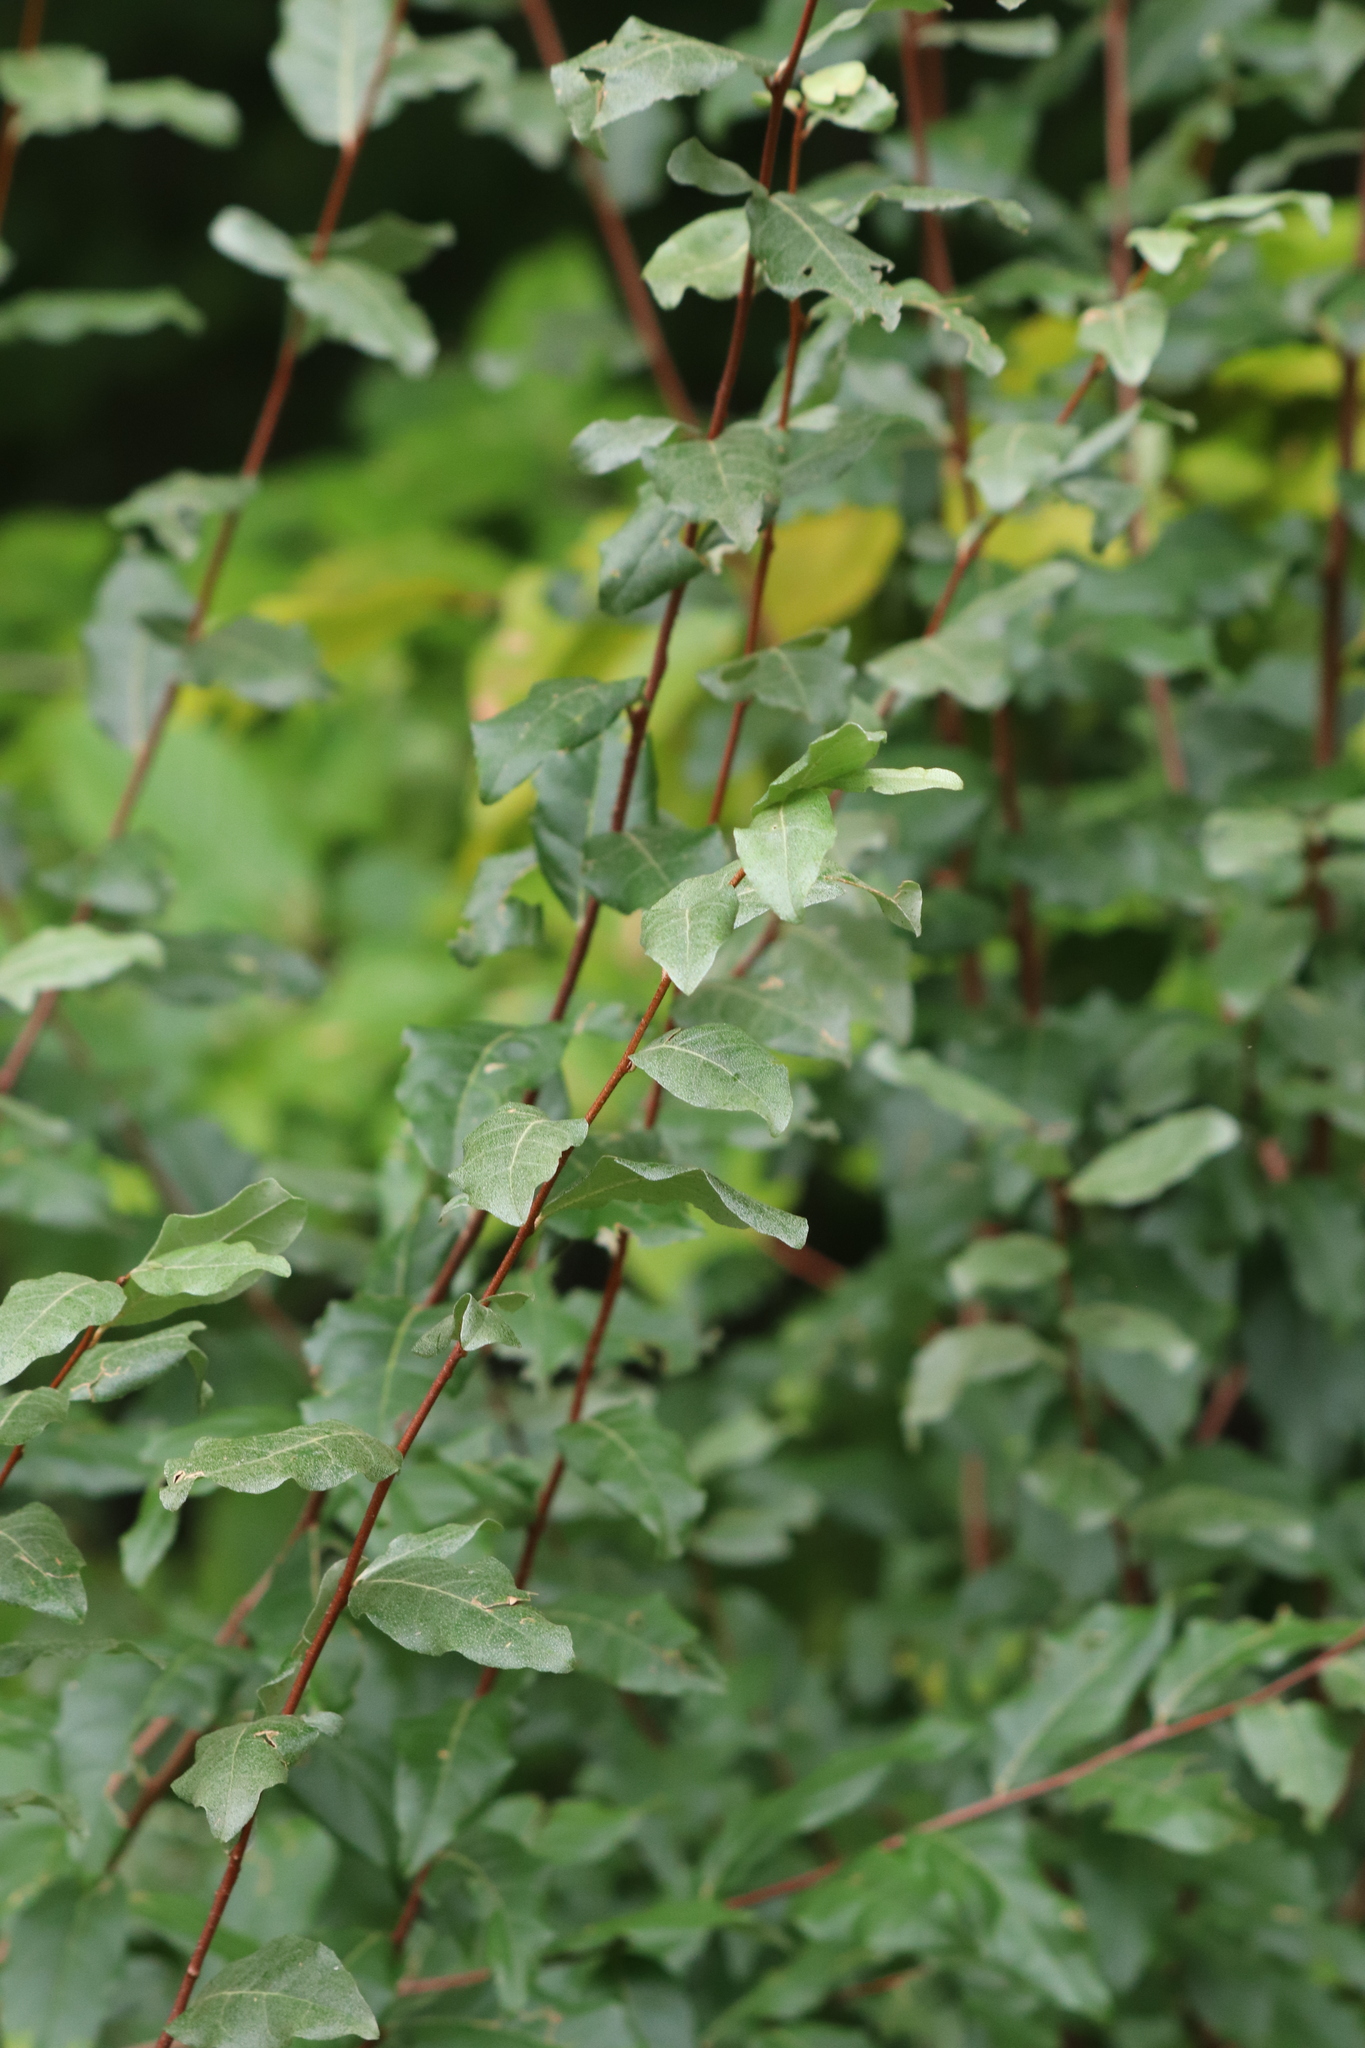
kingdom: Plantae
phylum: Tracheophyta
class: Magnoliopsida
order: Rosales
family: Elaeagnaceae
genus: Elaeagnus
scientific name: Elaeagnus umbellata
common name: Autumn olive
